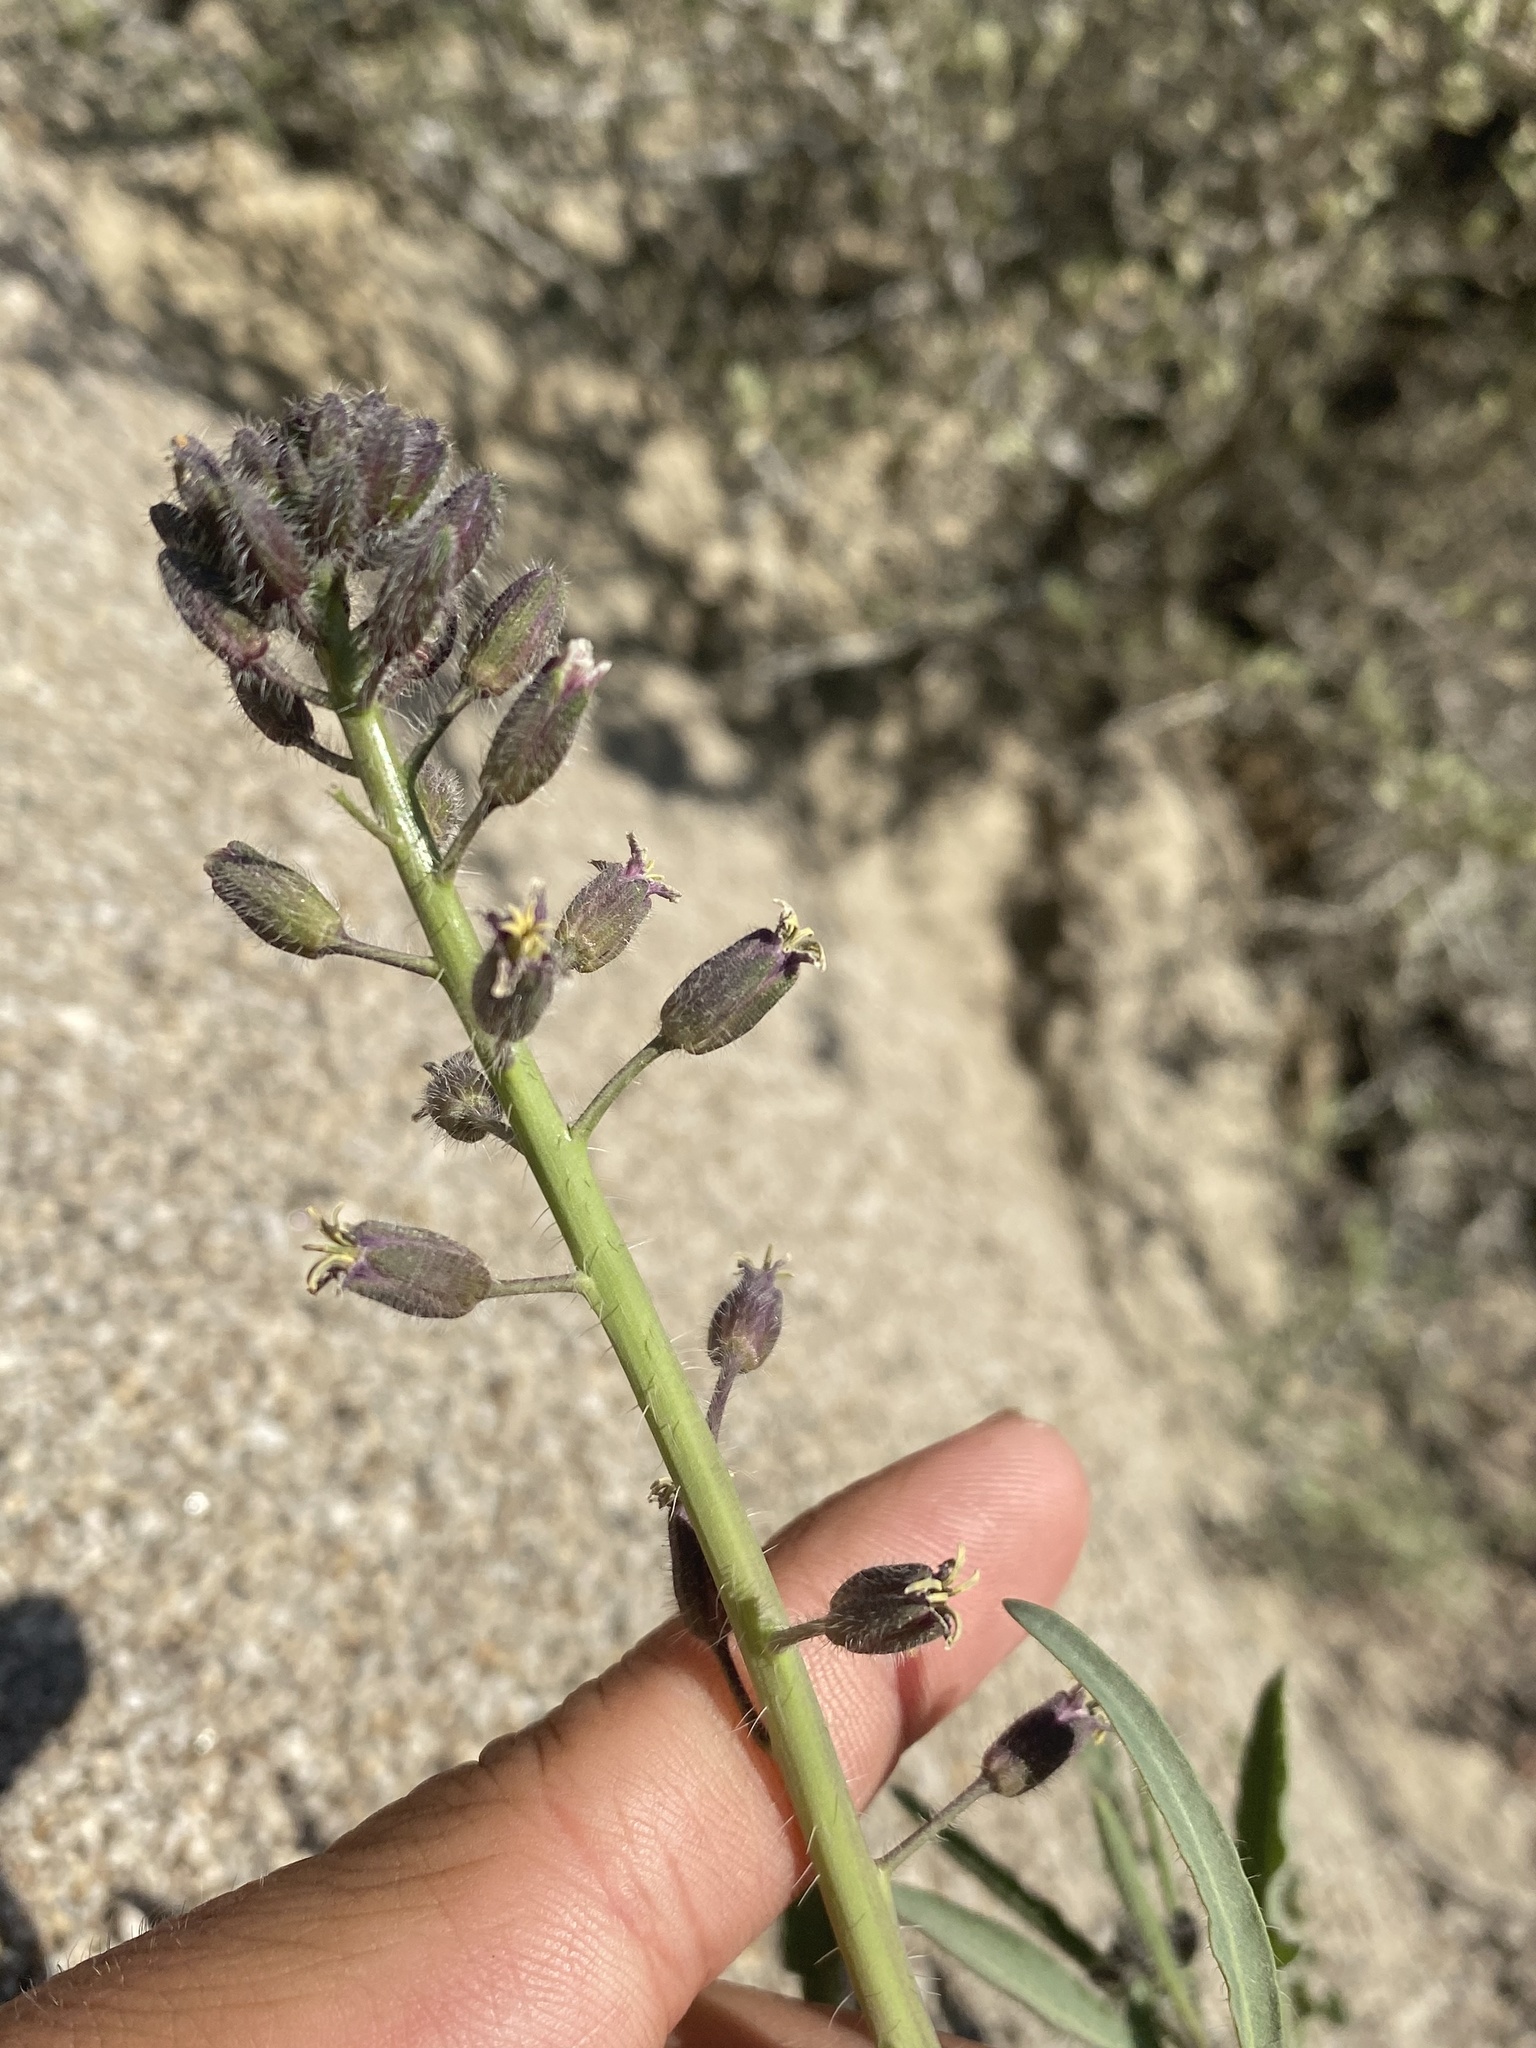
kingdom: Plantae
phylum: Tracheophyta
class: Magnoliopsida
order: Brassicales
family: Brassicaceae
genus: Streptanthus
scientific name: Streptanthus pilosus
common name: Chocolate drops
